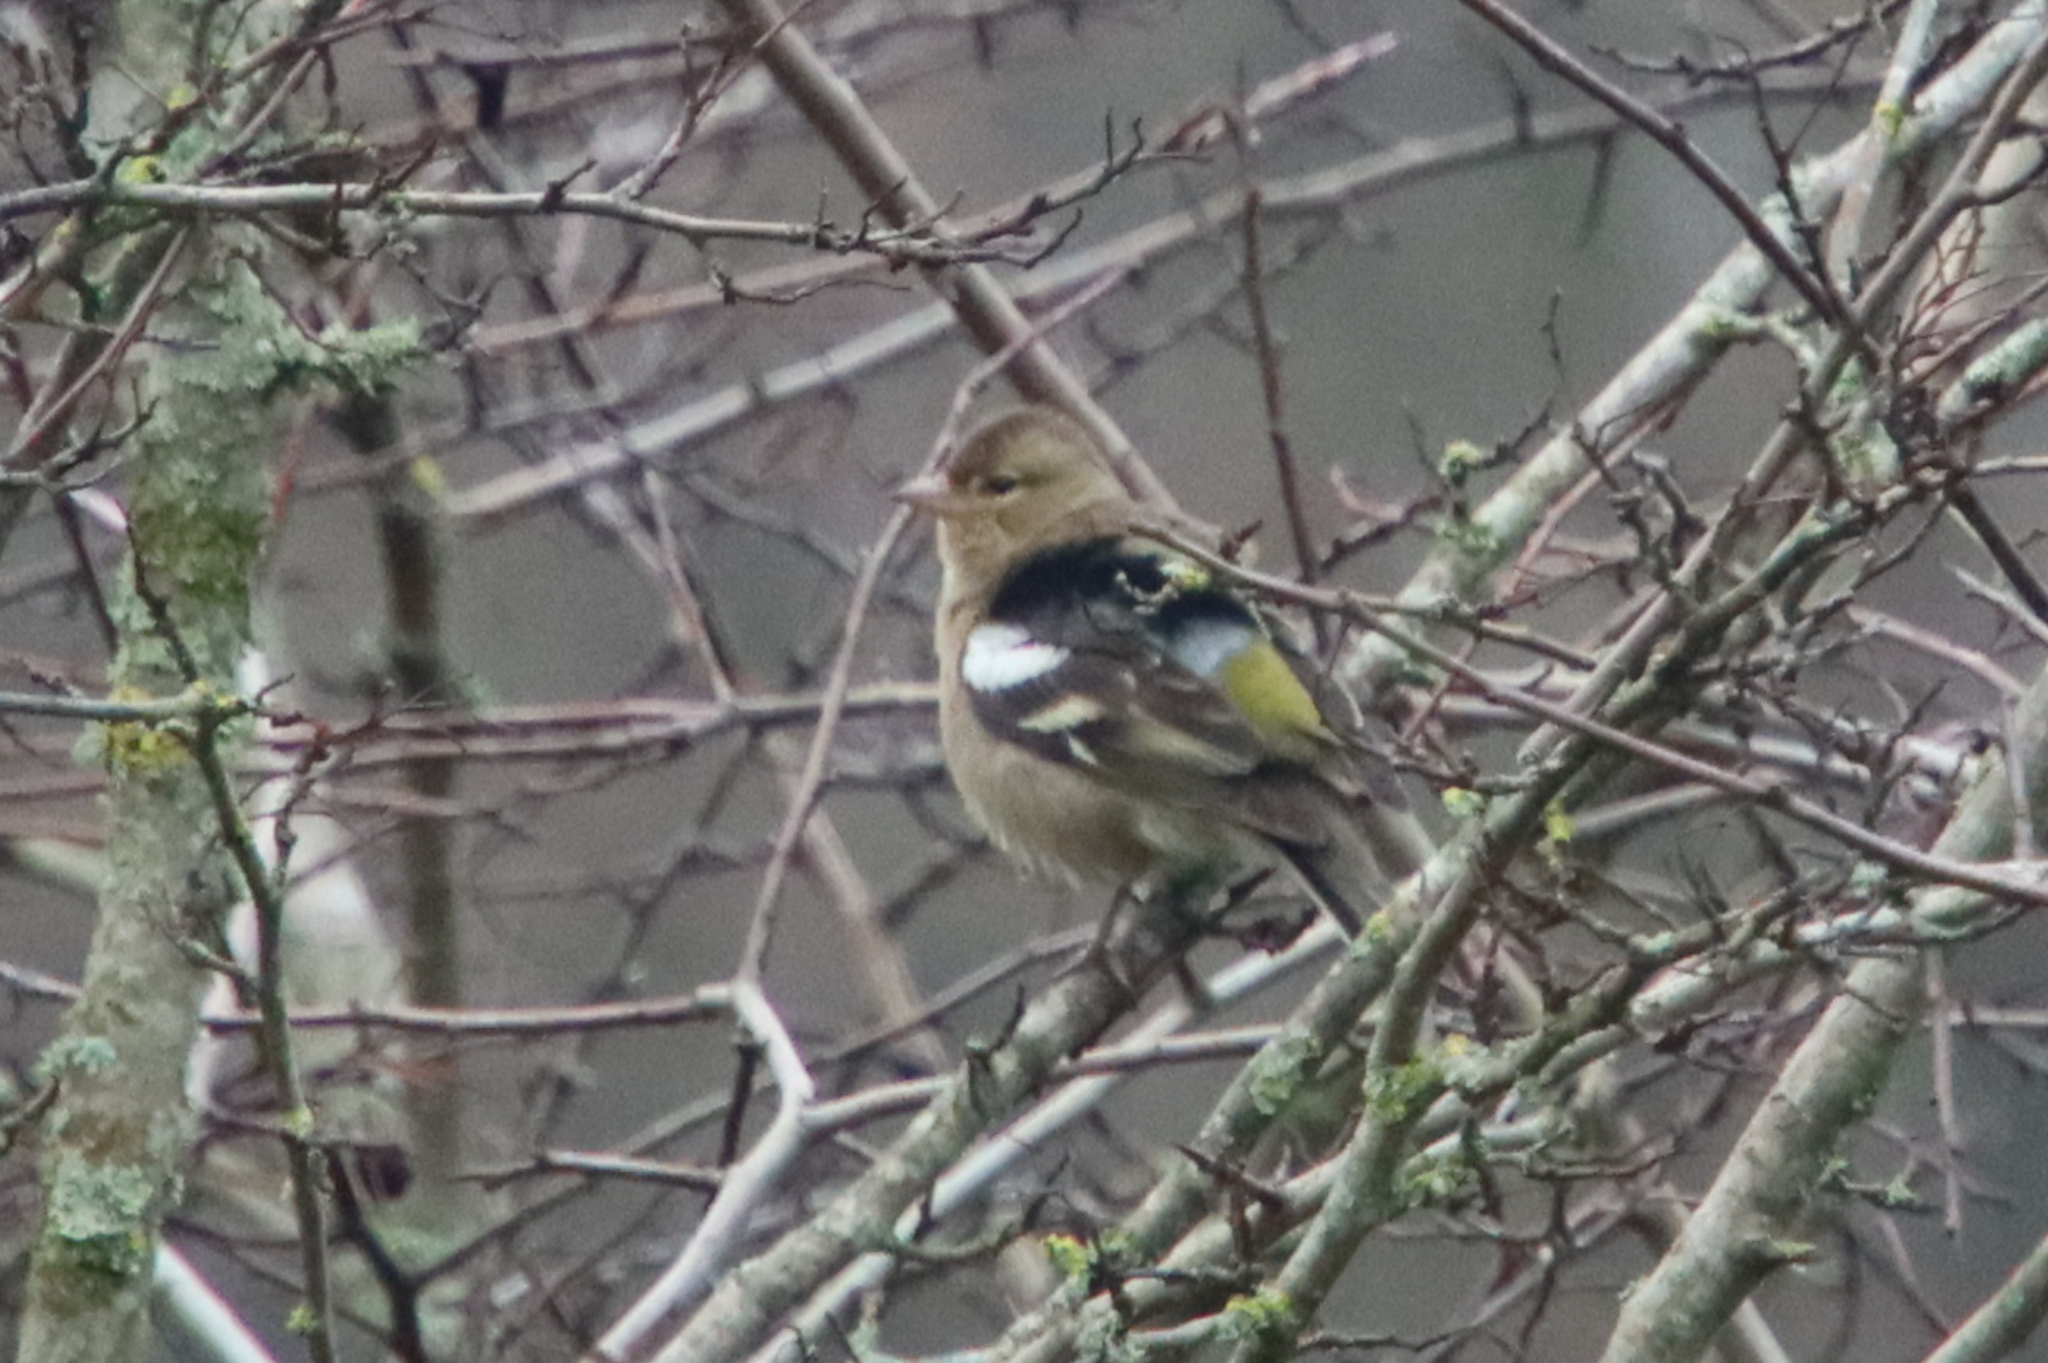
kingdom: Animalia
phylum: Chordata
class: Aves
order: Passeriformes
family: Fringillidae
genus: Fringilla
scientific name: Fringilla coelebs
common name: Common chaffinch
